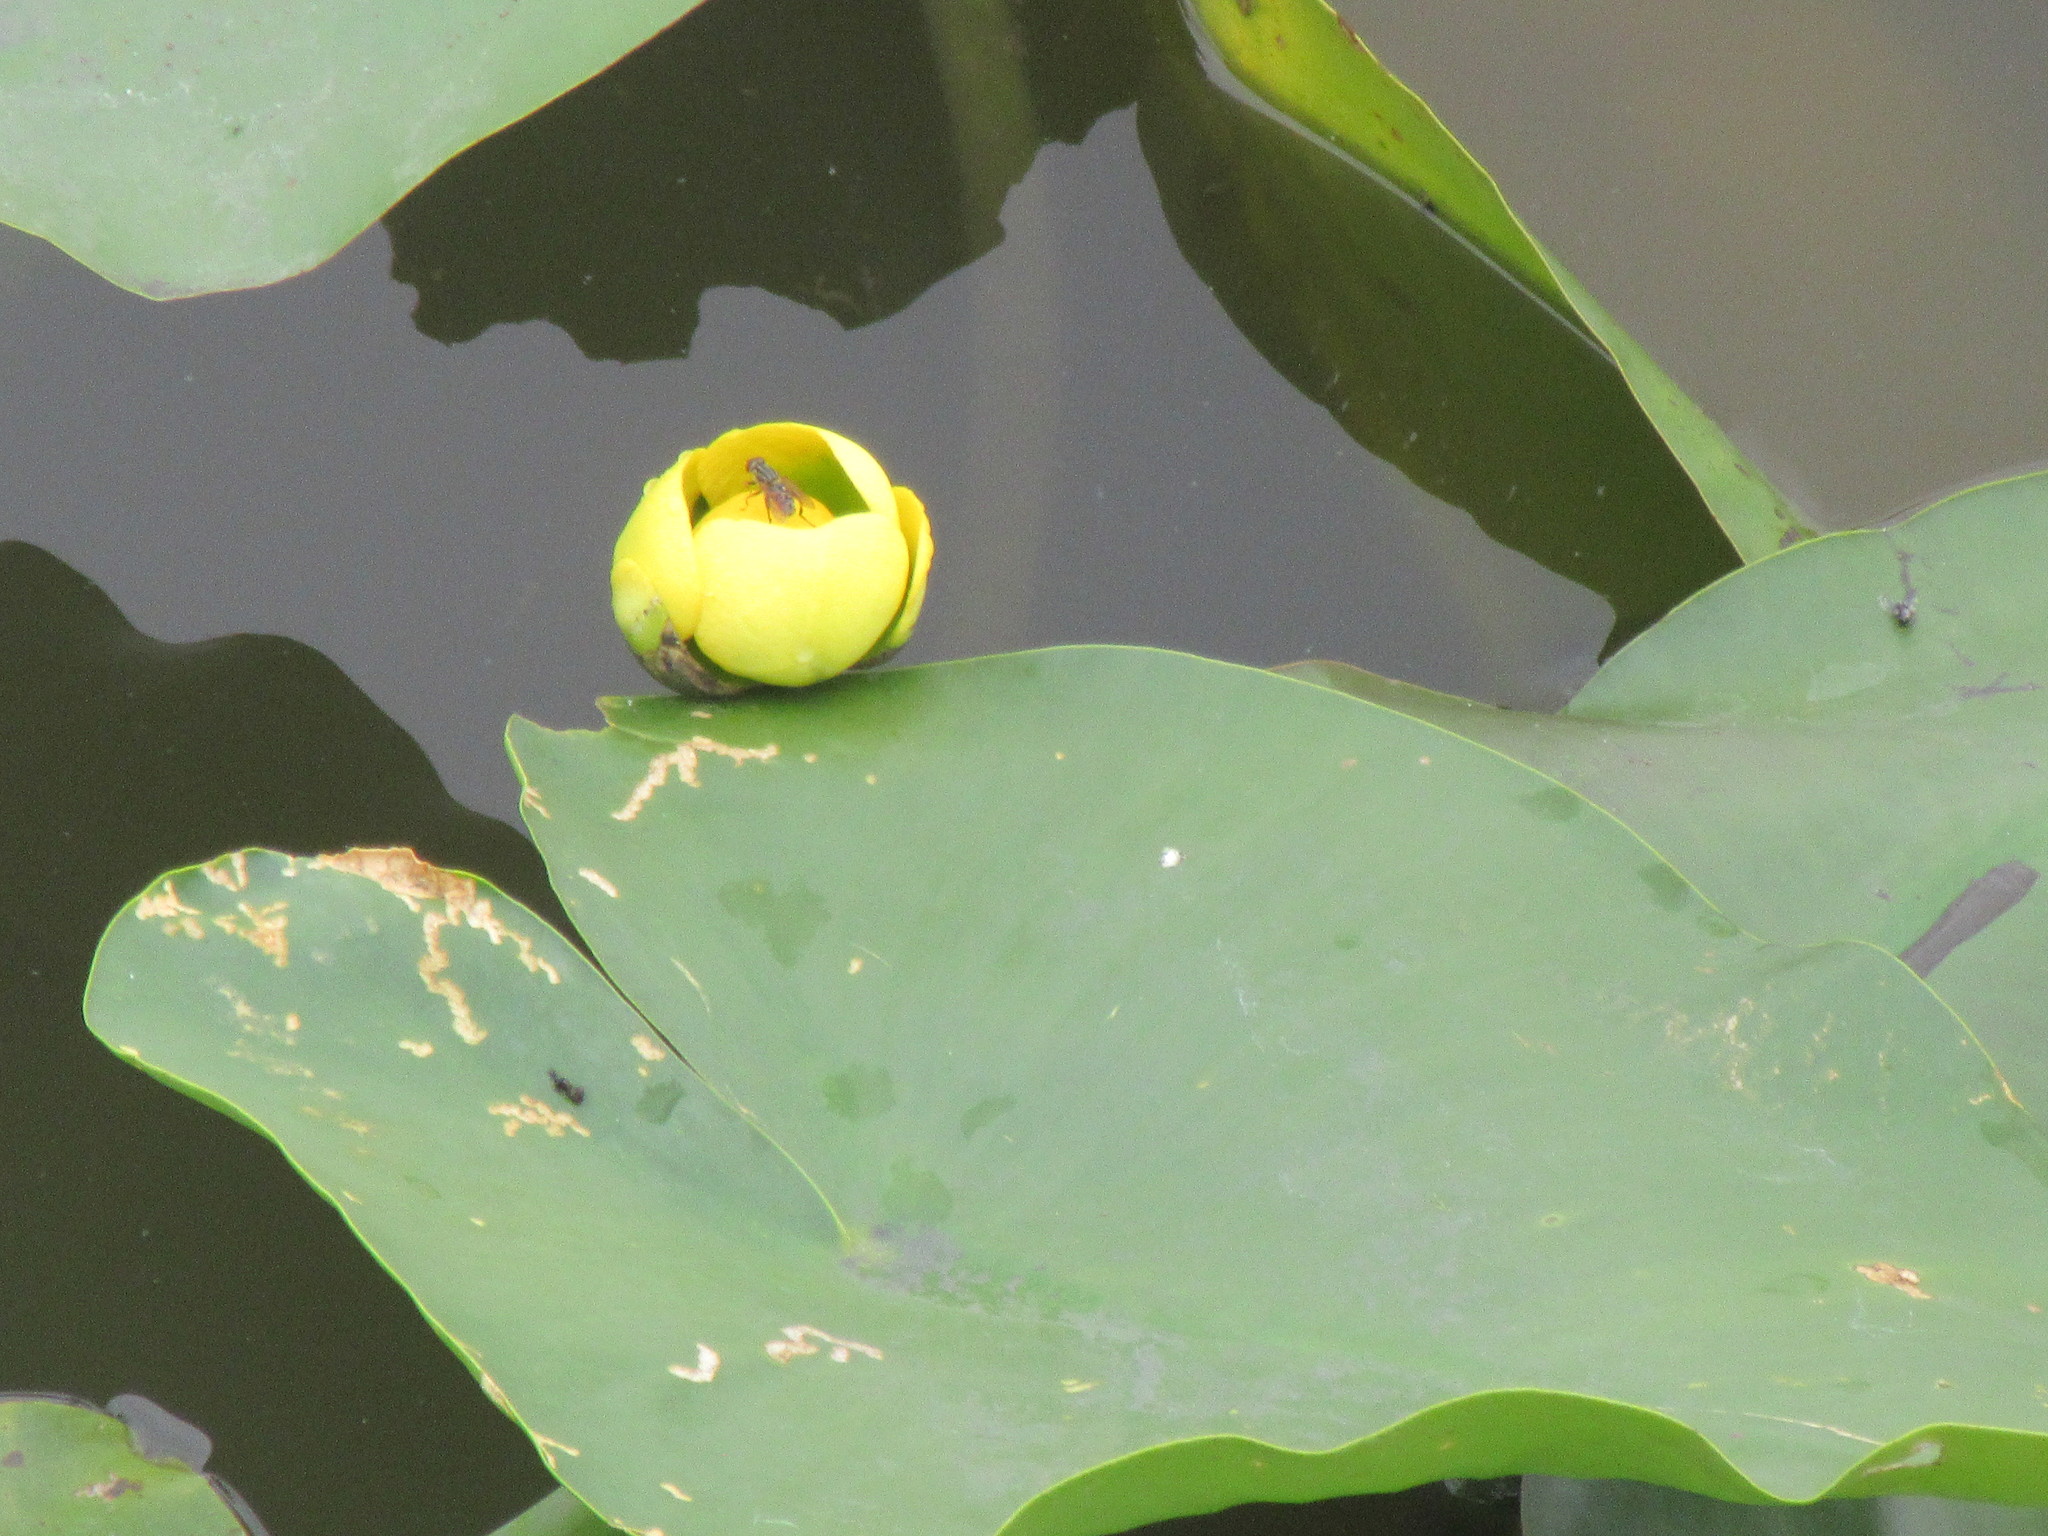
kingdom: Plantae
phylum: Tracheophyta
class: Magnoliopsida
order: Nymphaeales
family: Nymphaeaceae
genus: Nuphar
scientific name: Nuphar advena
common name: Spatter-dock
